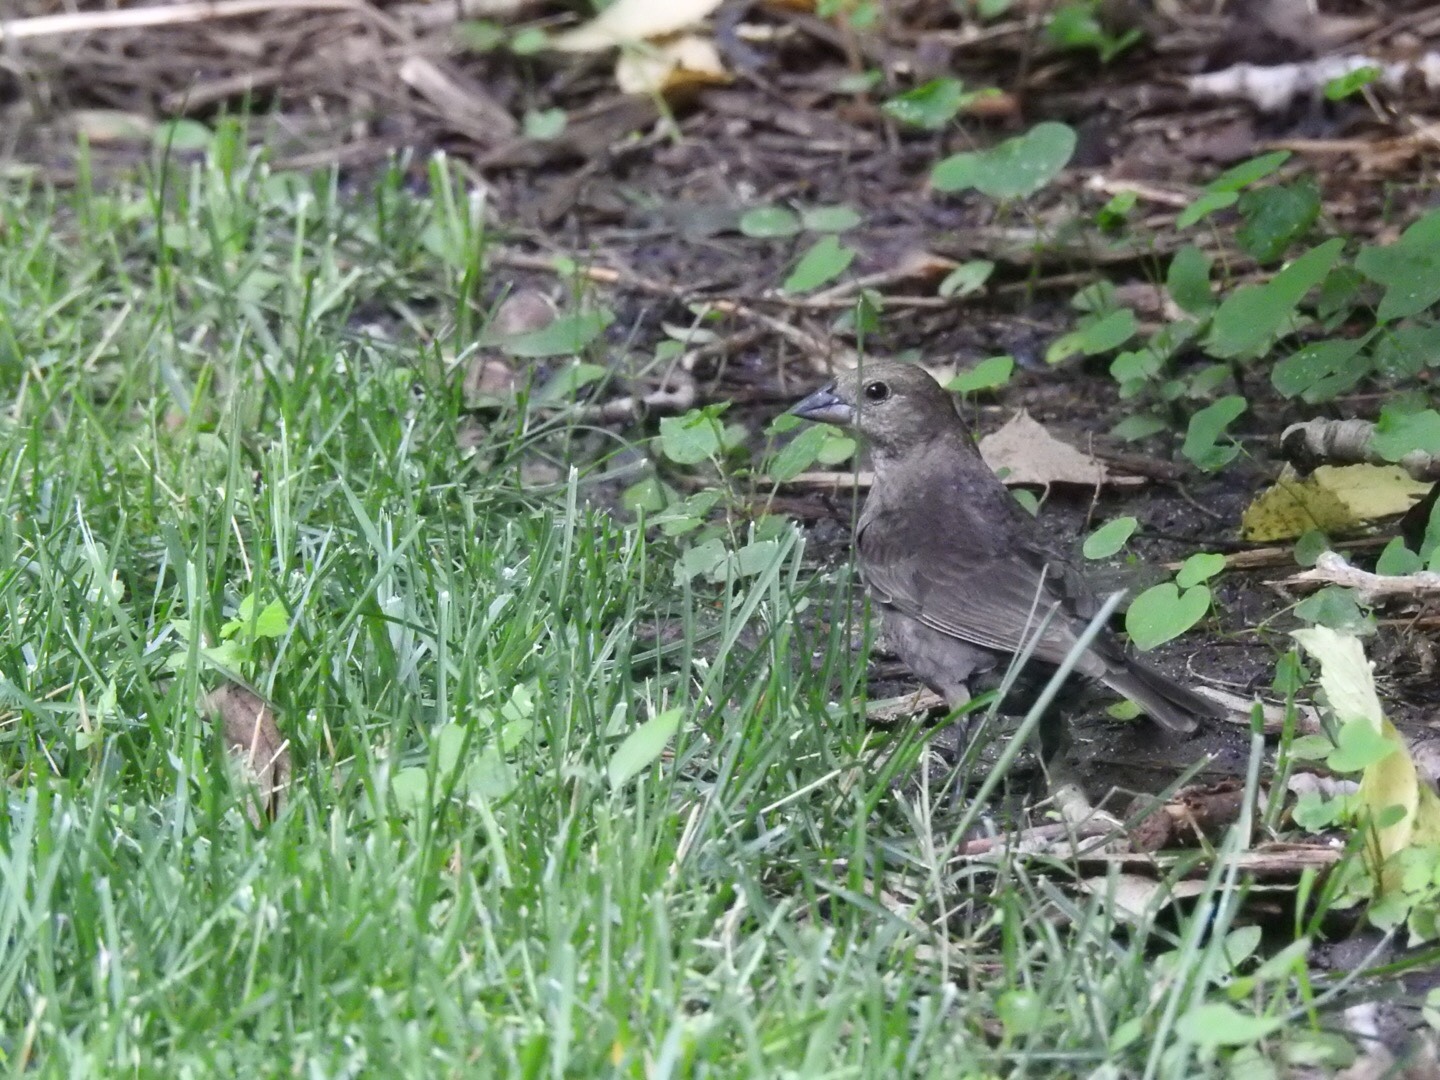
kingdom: Animalia
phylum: Chordata
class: Aves
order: Passeriformes
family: Icteridae
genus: Molothrus
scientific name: Molothrus ater
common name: Brown-headed cowbird
